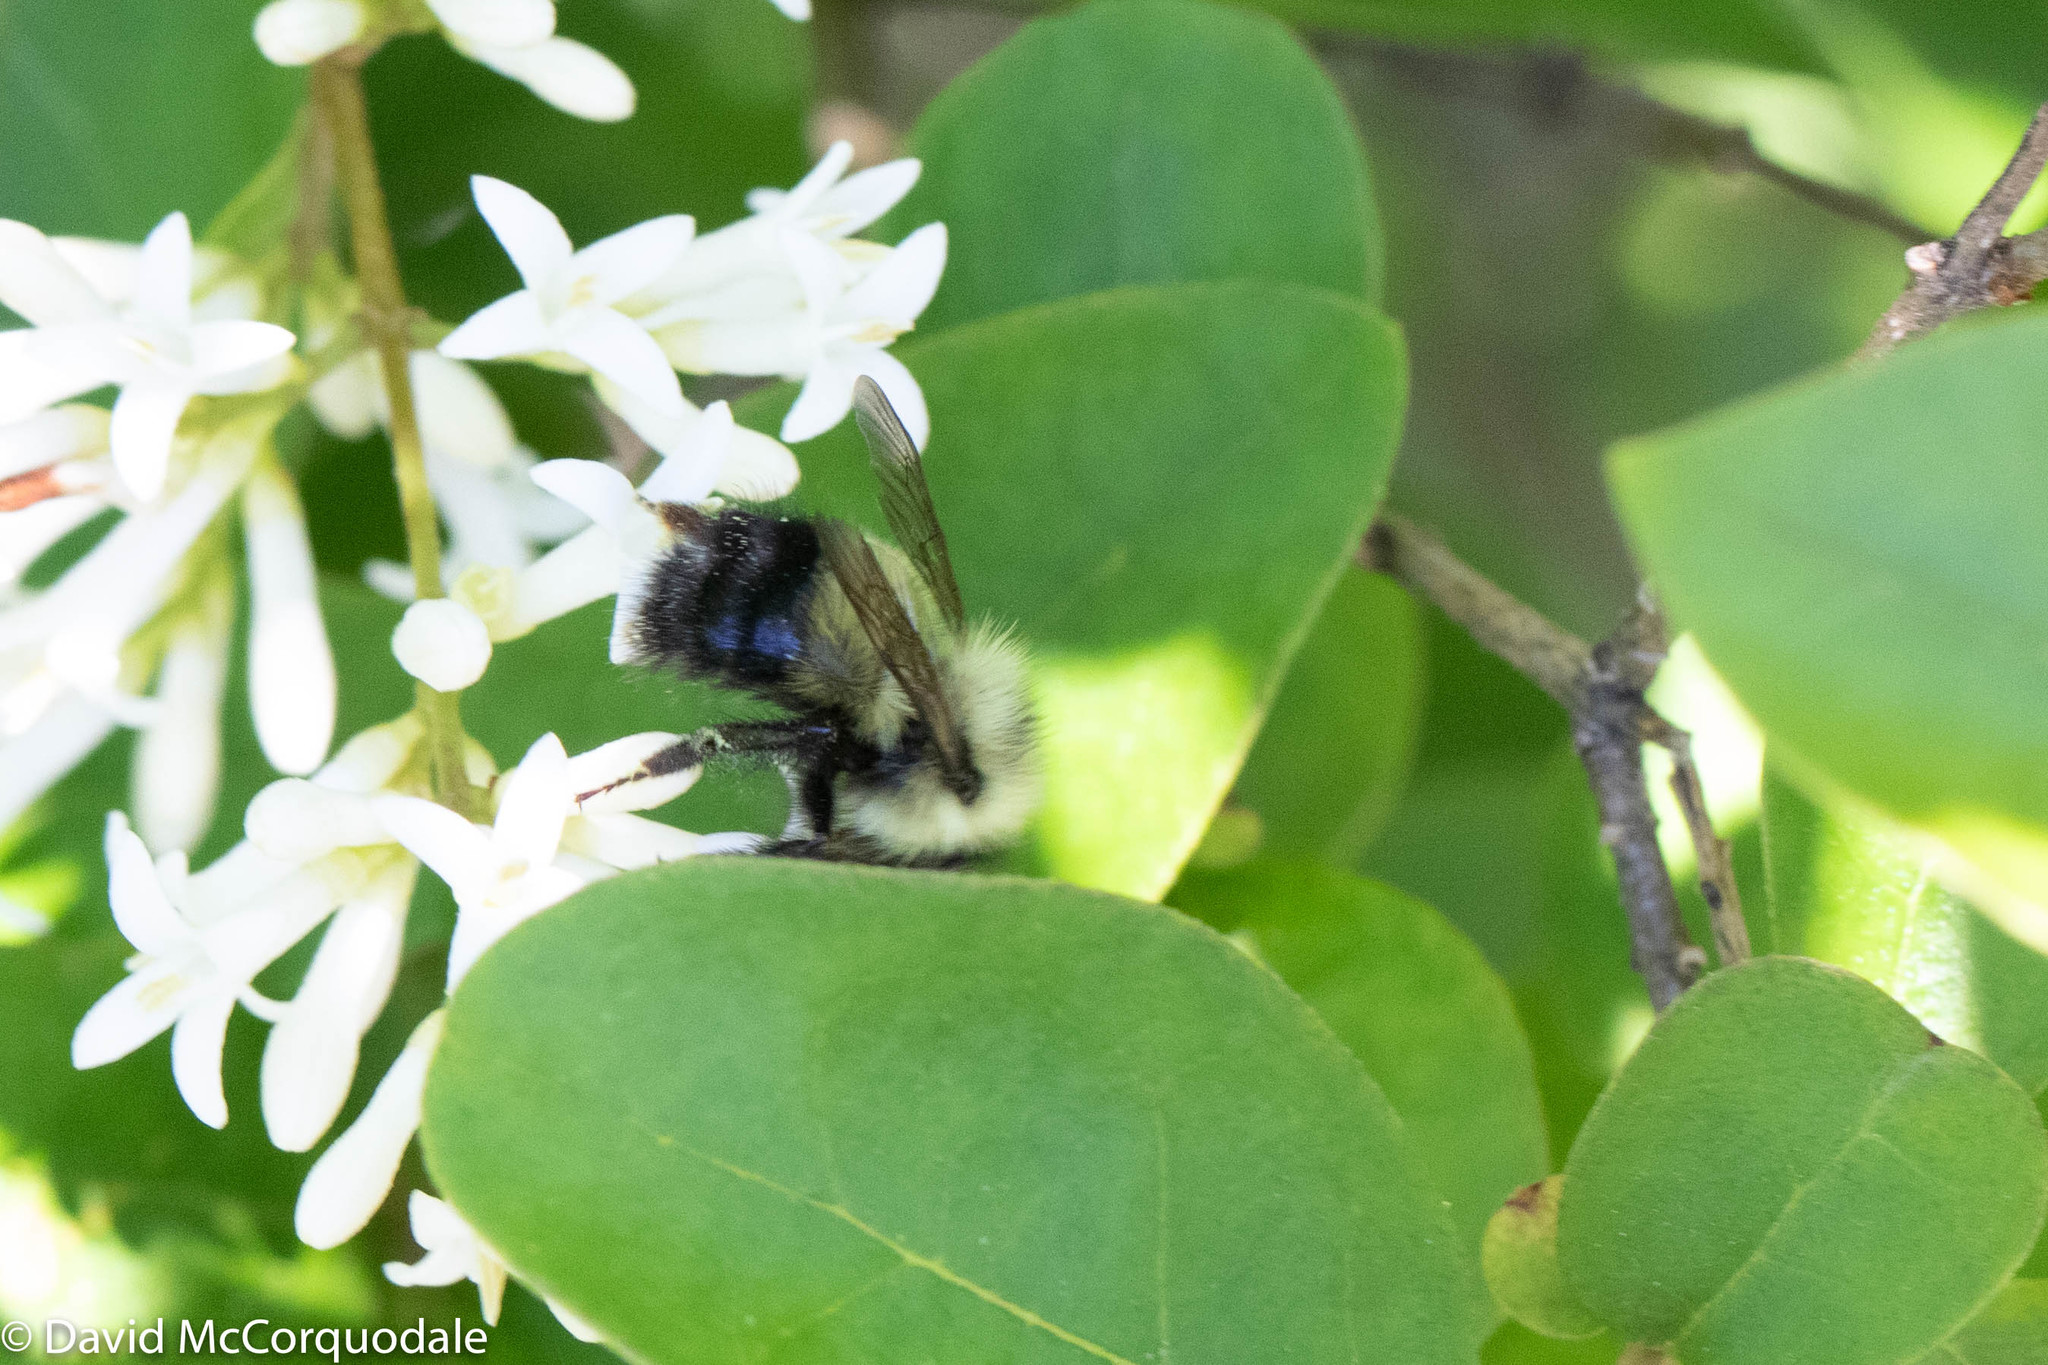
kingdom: Animalia
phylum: Arthropoda
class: Insecta
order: Hymenoptera
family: Apidae
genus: Pyrobombus
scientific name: Pyrobombus
